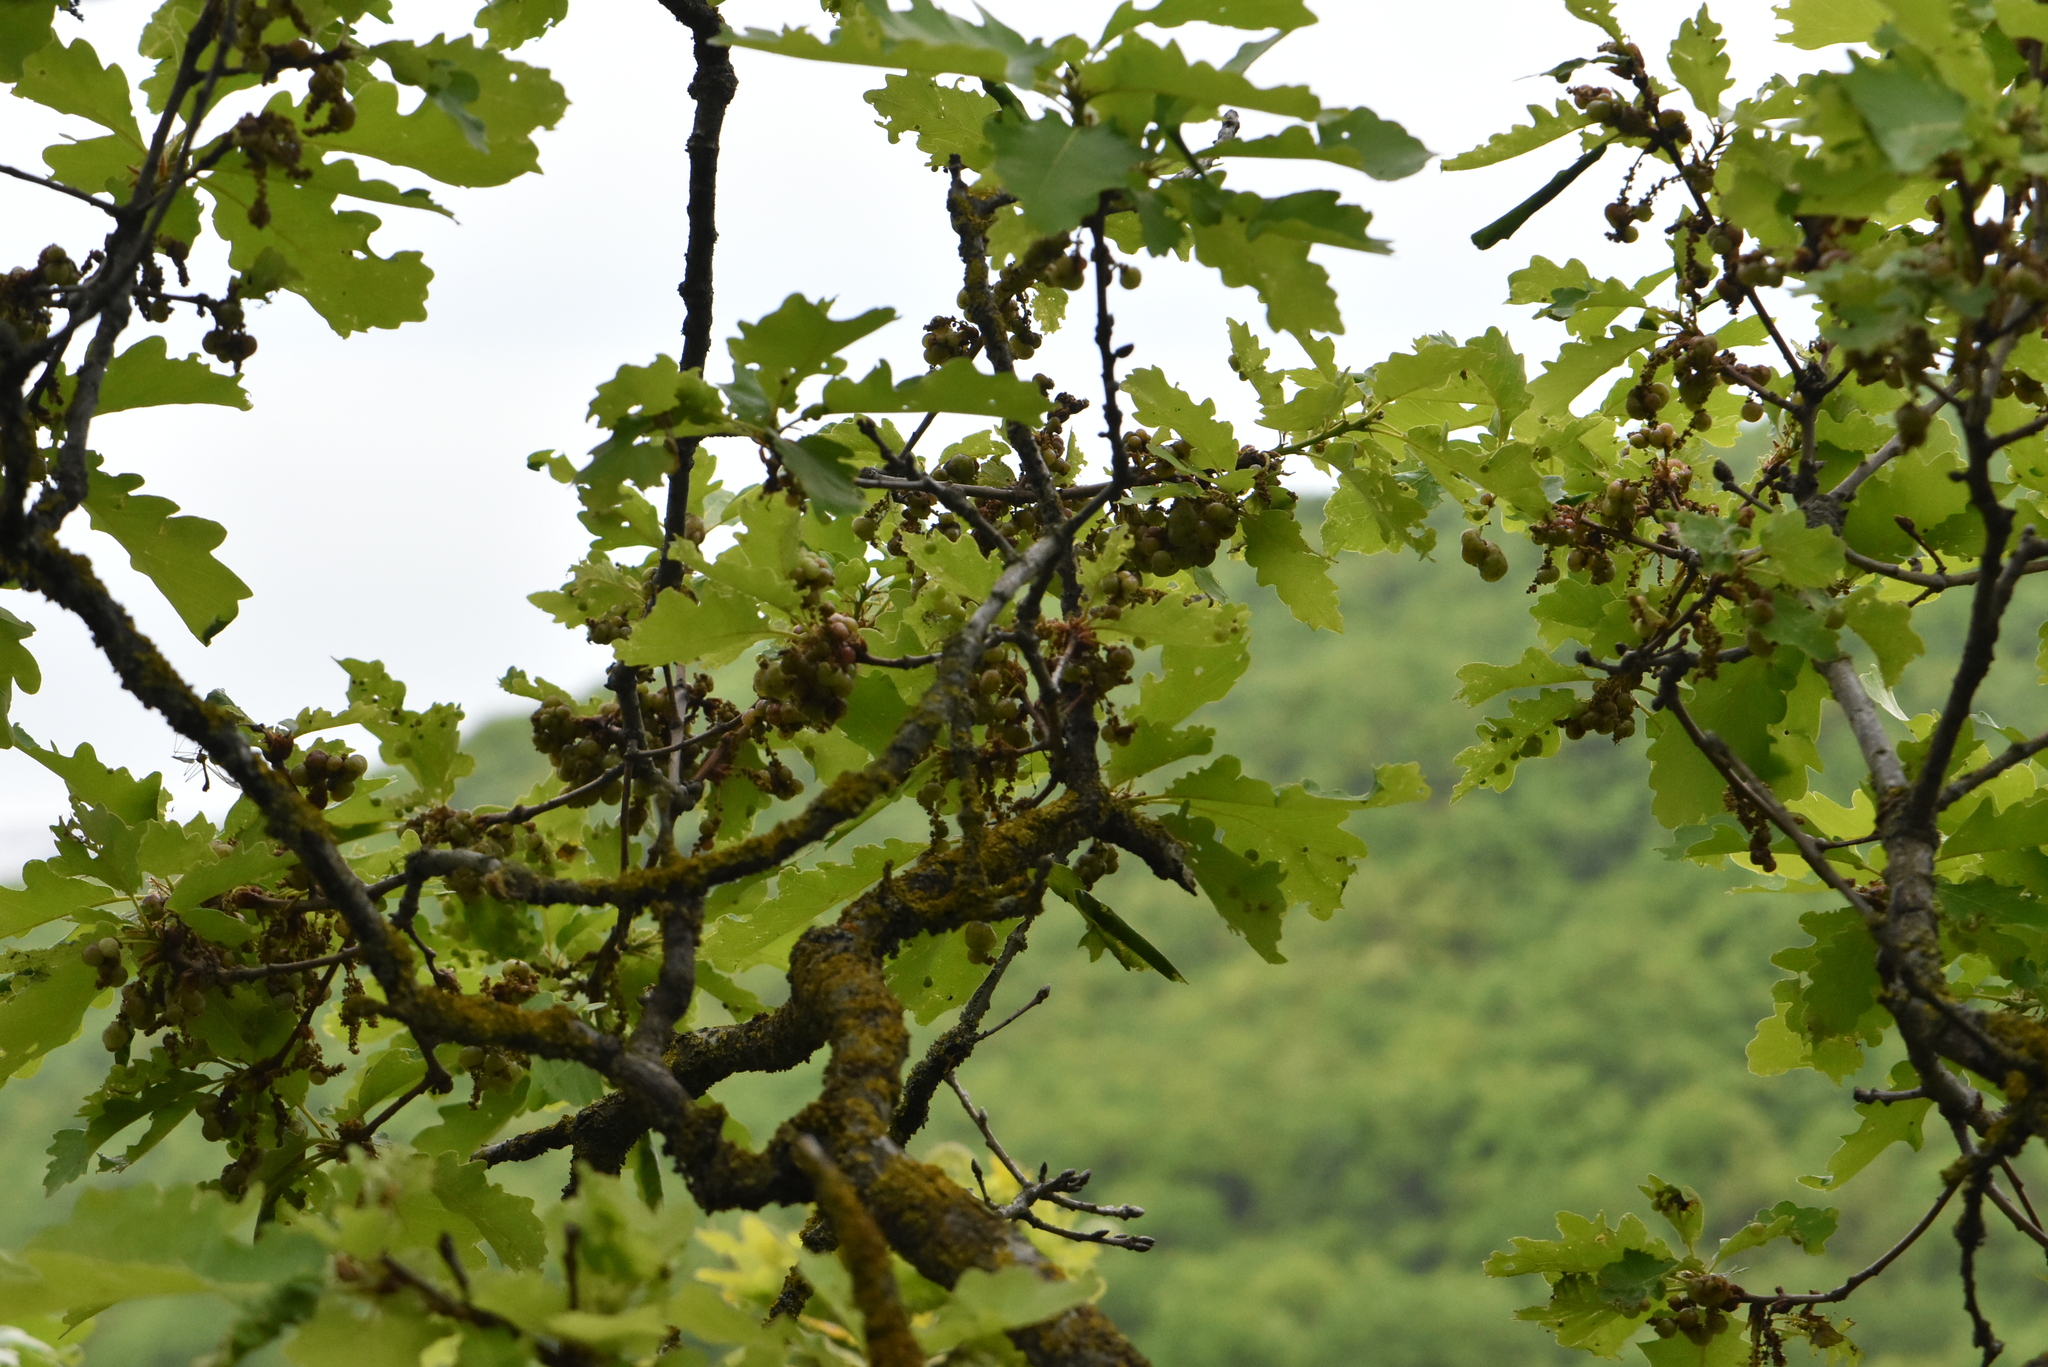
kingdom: Plantae
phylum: Tracheophyta
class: Magnoliopsida
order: Fagales
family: Fagaceae
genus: Quercus
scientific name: Quercus pubescens
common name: Downy oak
